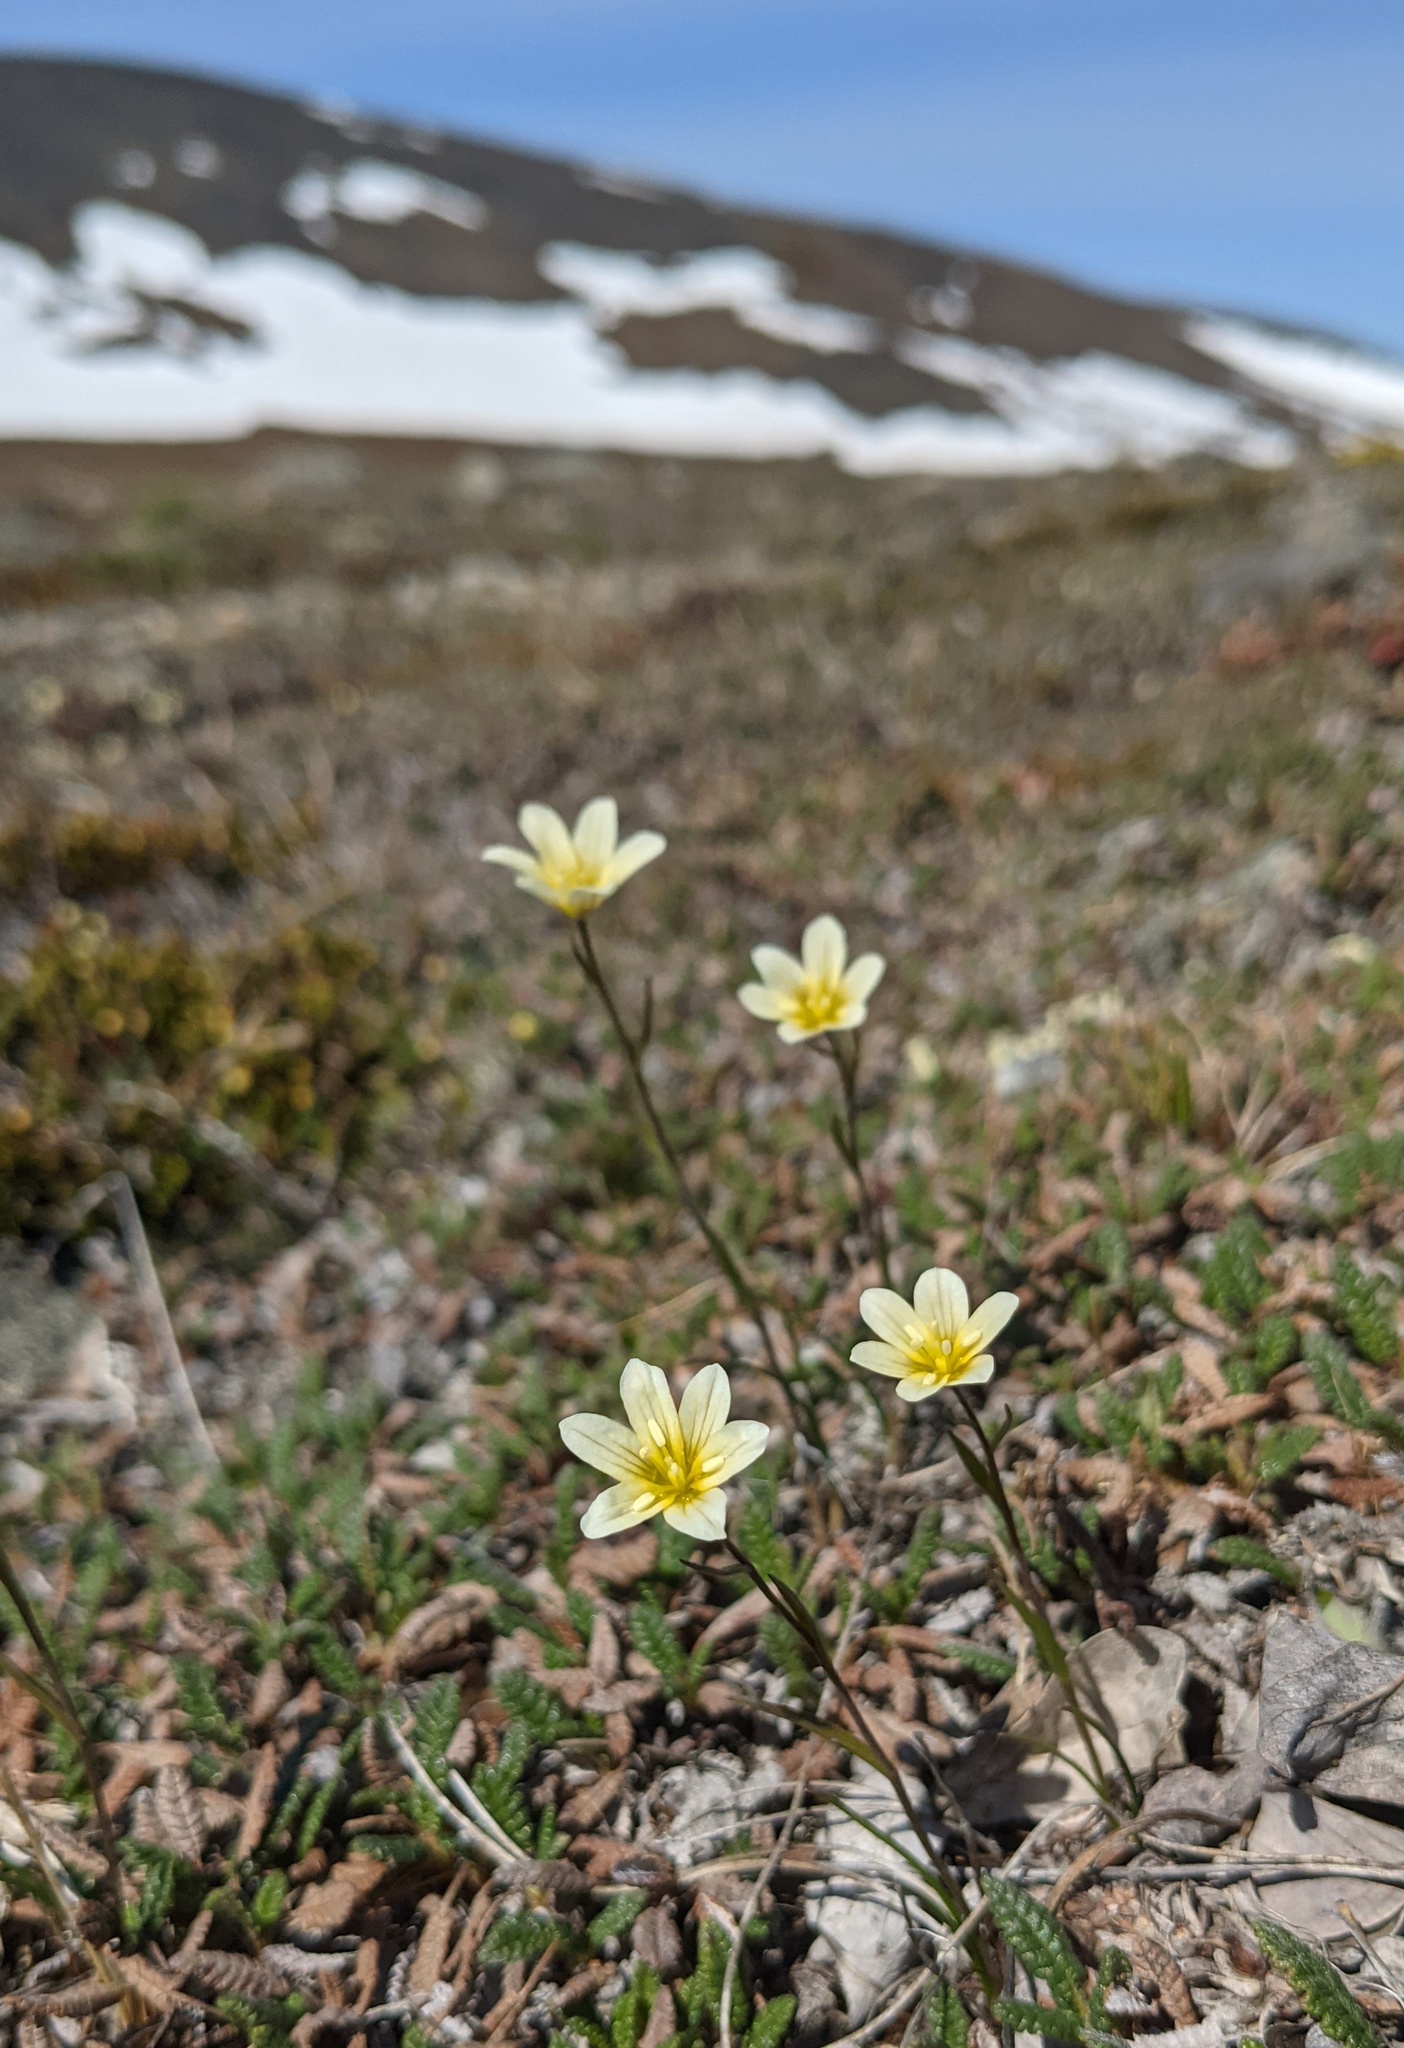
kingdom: Plantae
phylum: Tracheophyta
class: Liliopsida
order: Liliales
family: Liliaceae
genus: Gagea
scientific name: Gagea serotina
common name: Snowdon lily
